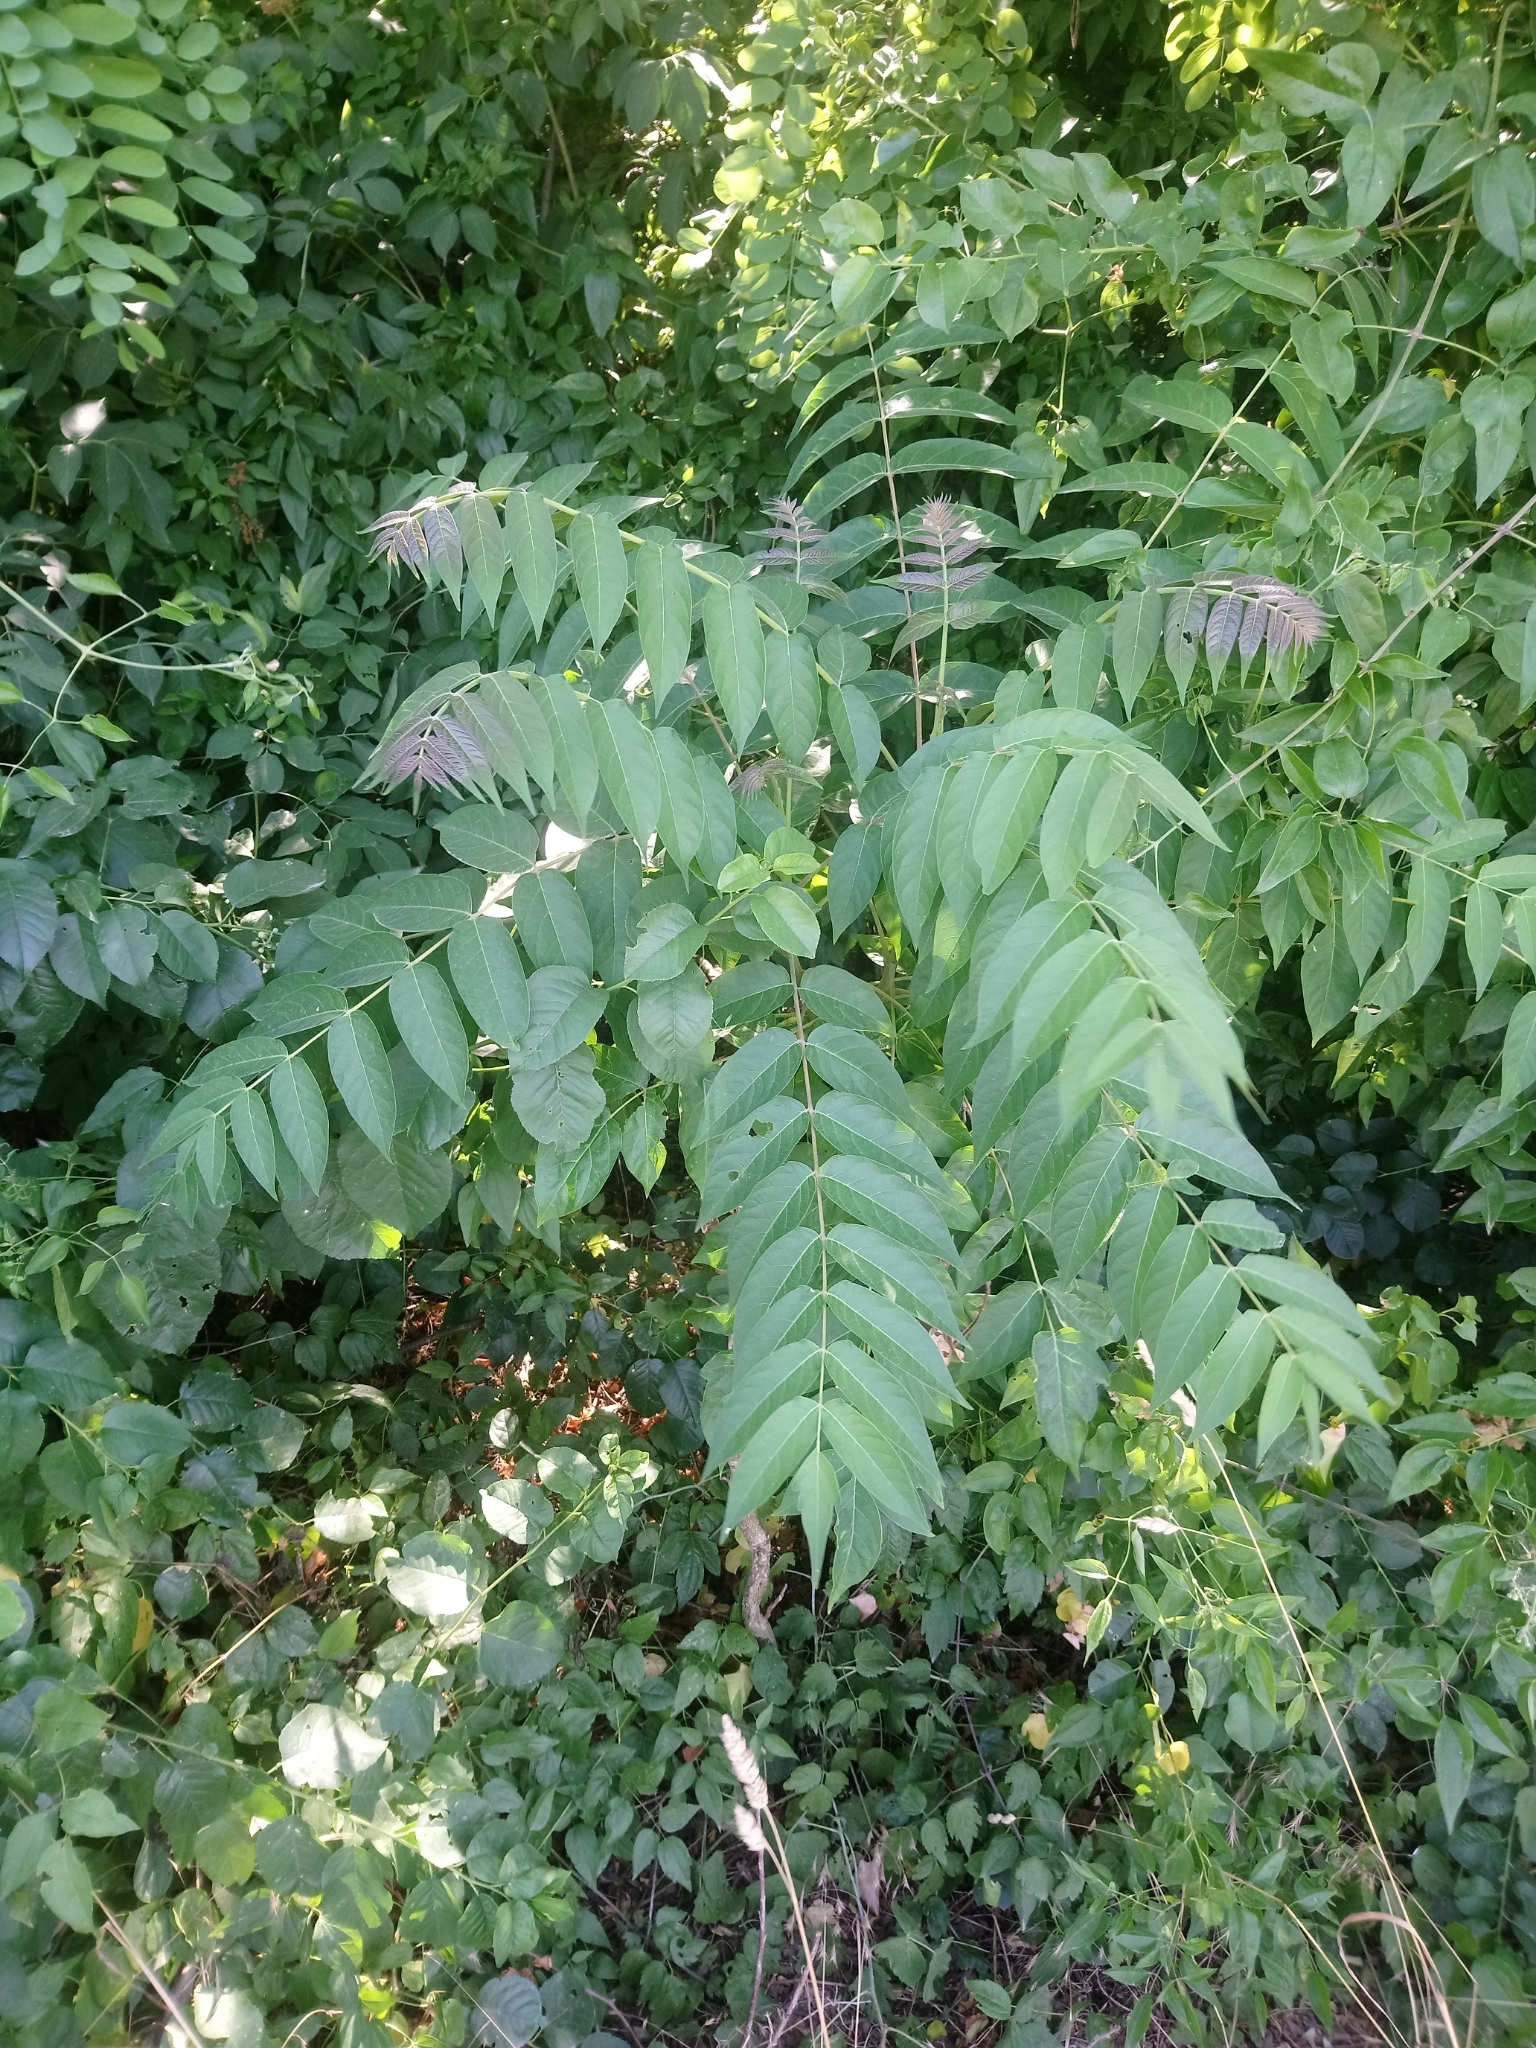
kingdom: Plantae
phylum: Tracheophyta
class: Magnoliopsida
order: Sapindales
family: Simaroubaceae
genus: Ailanthus
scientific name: Ailanthus altissima
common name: Tree-of-heaven
